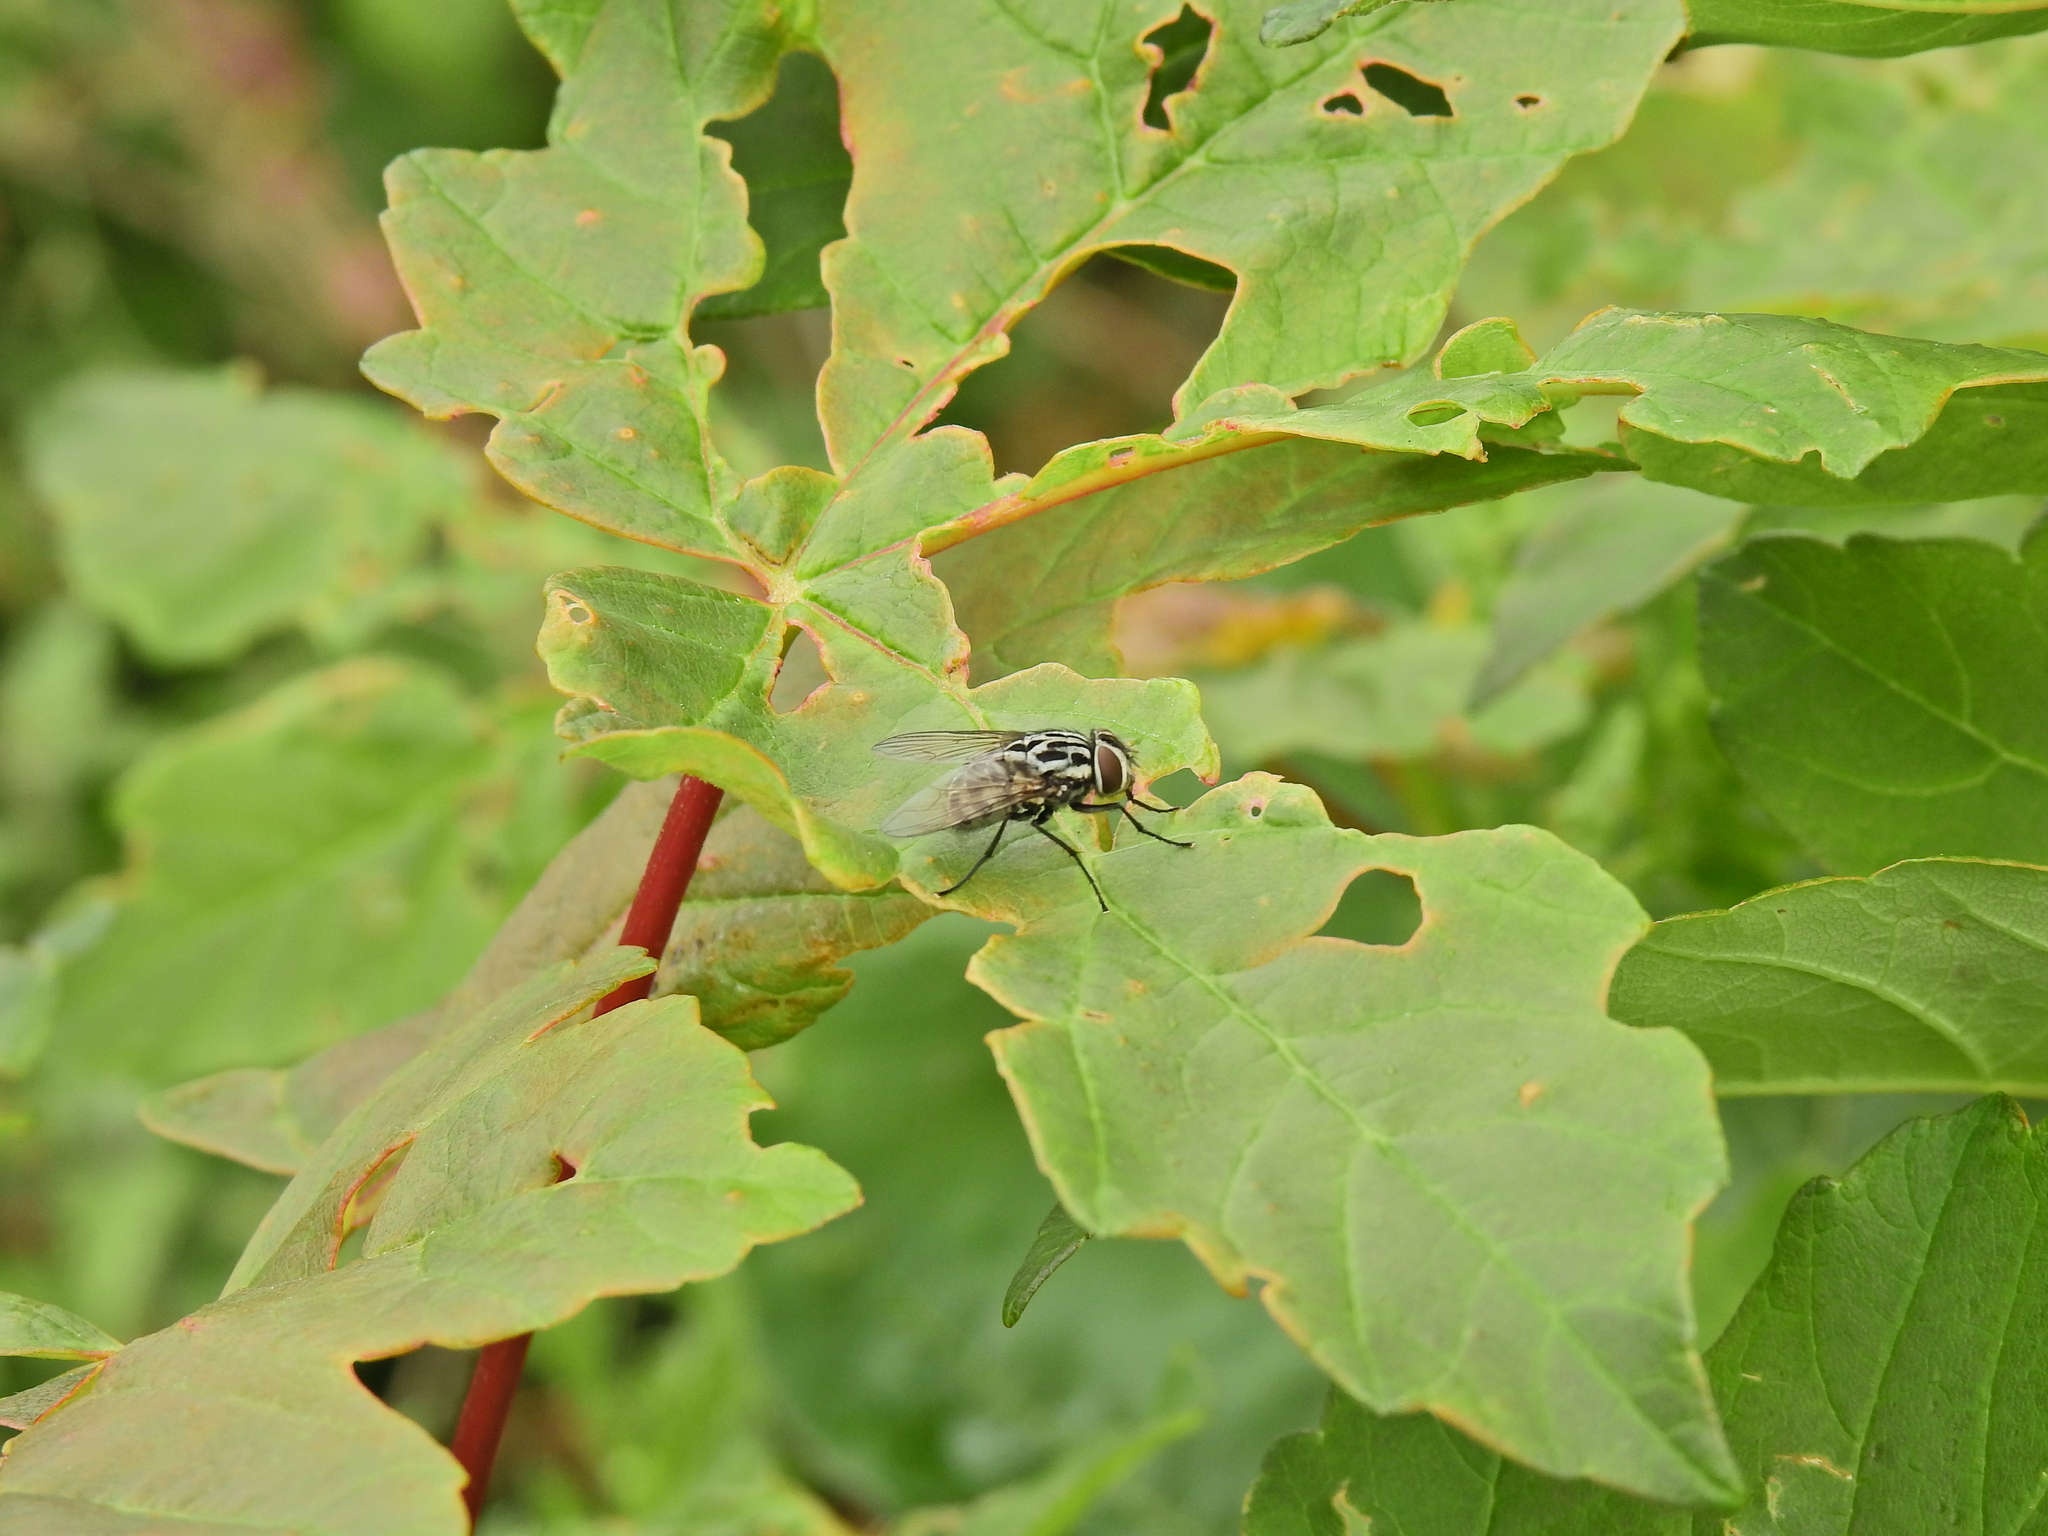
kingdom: Animalia
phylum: Arthropoda
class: Insecta
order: Diptera
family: Muscidae
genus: Graphomya
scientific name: Graphomya maculata
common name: Muscid fly
